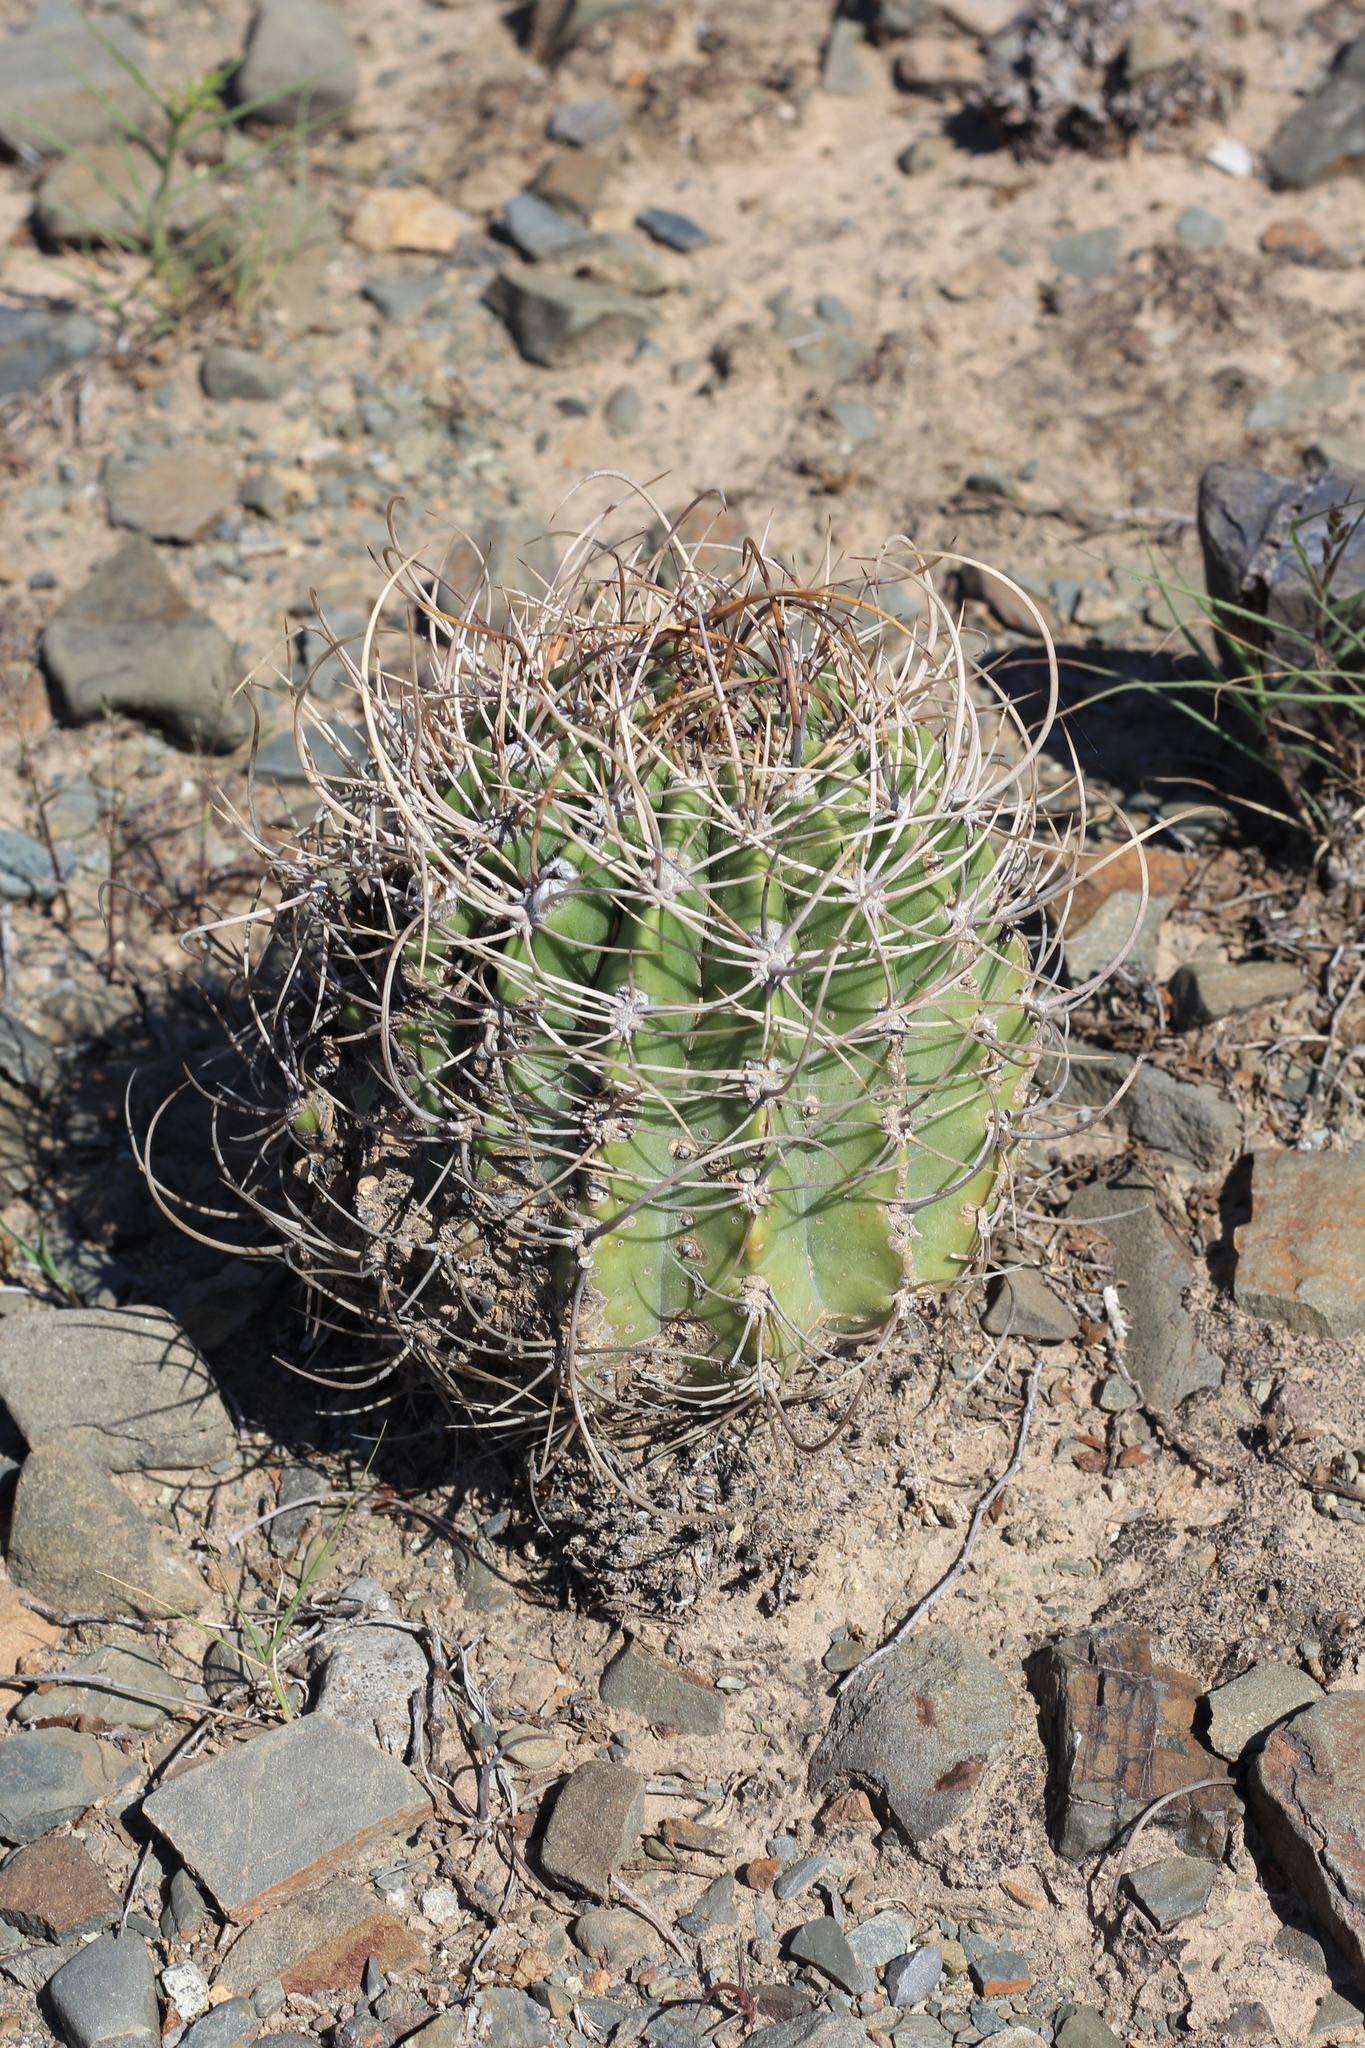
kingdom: Plantae
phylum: Tracheophyta
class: Magnoliopsida
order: Caryophyllales
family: Cactaceae
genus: Acanthocalycium
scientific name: Acanthocalycium leucanthum
